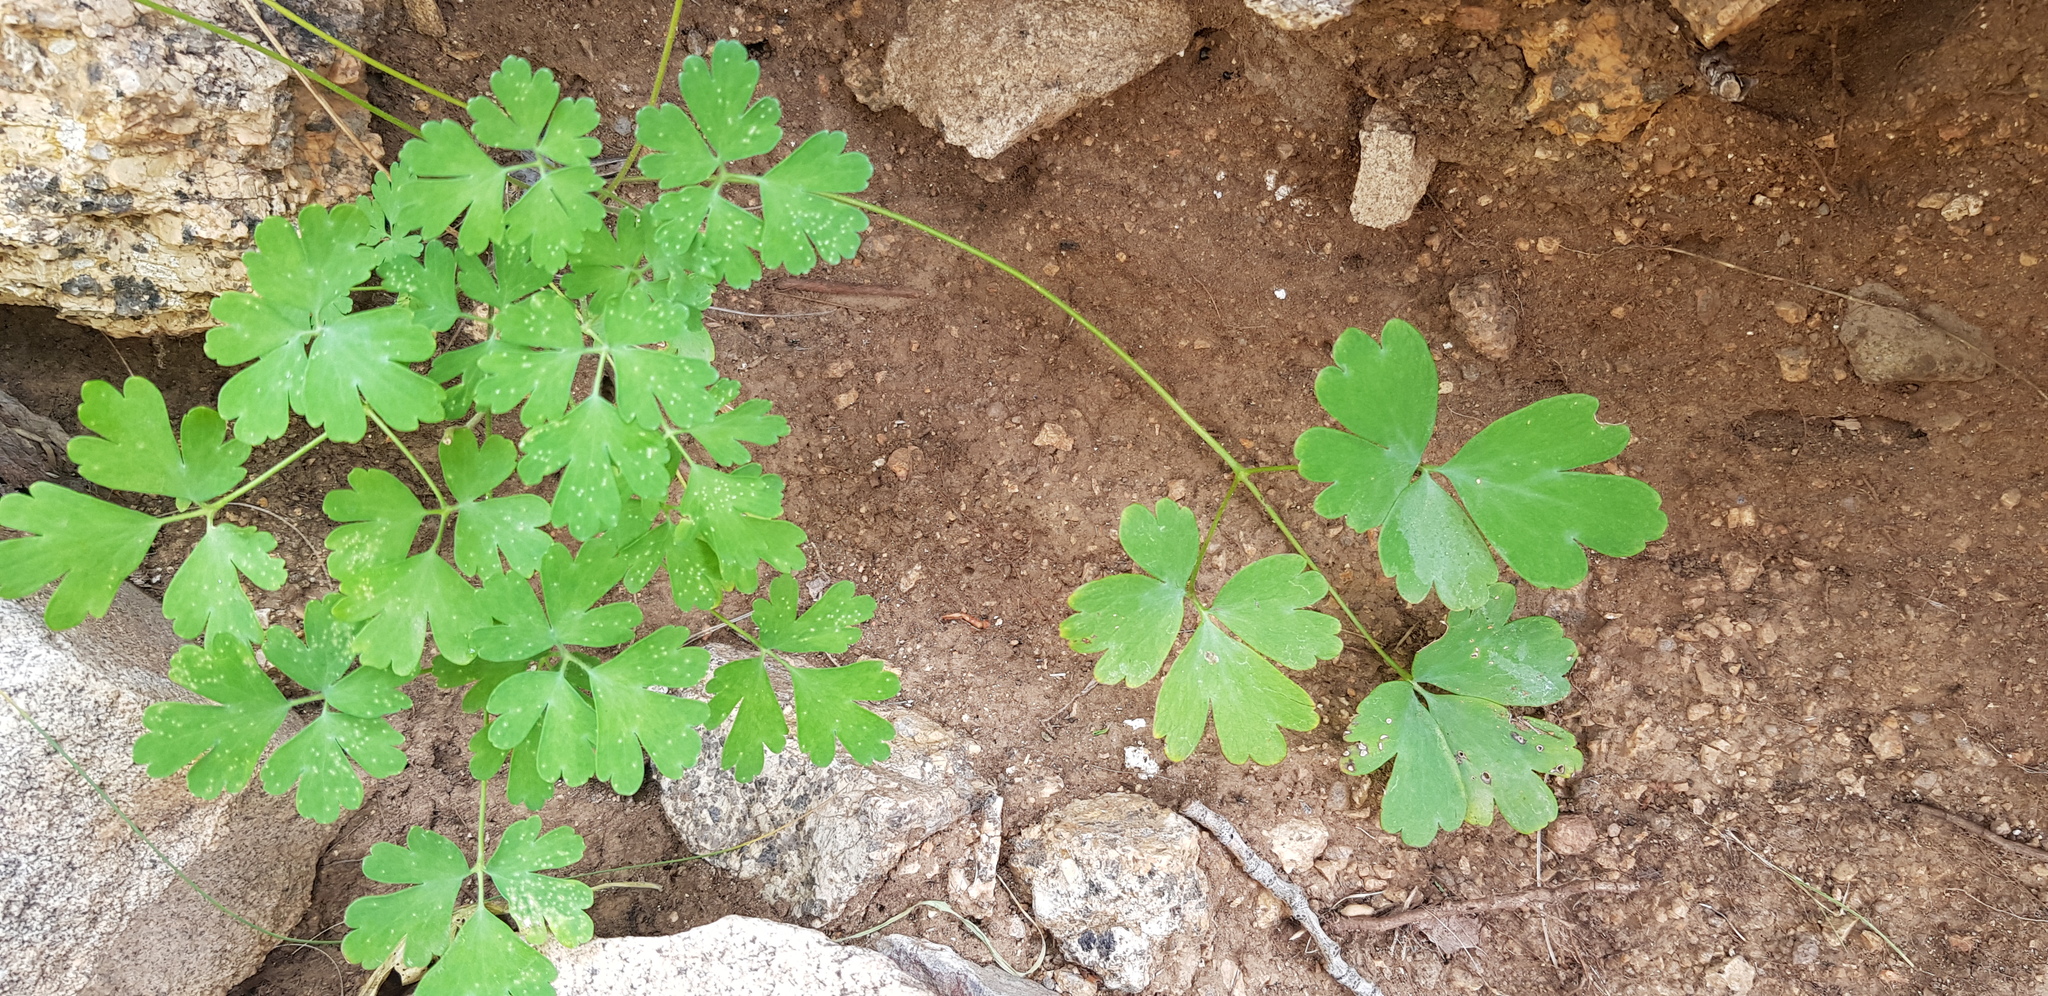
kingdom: Plantae
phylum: Tracheophyta
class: Magnoliopsida
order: Ranunculales
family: Ranunculaceae
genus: Aquilegia
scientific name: Aquilegia viridiflora
